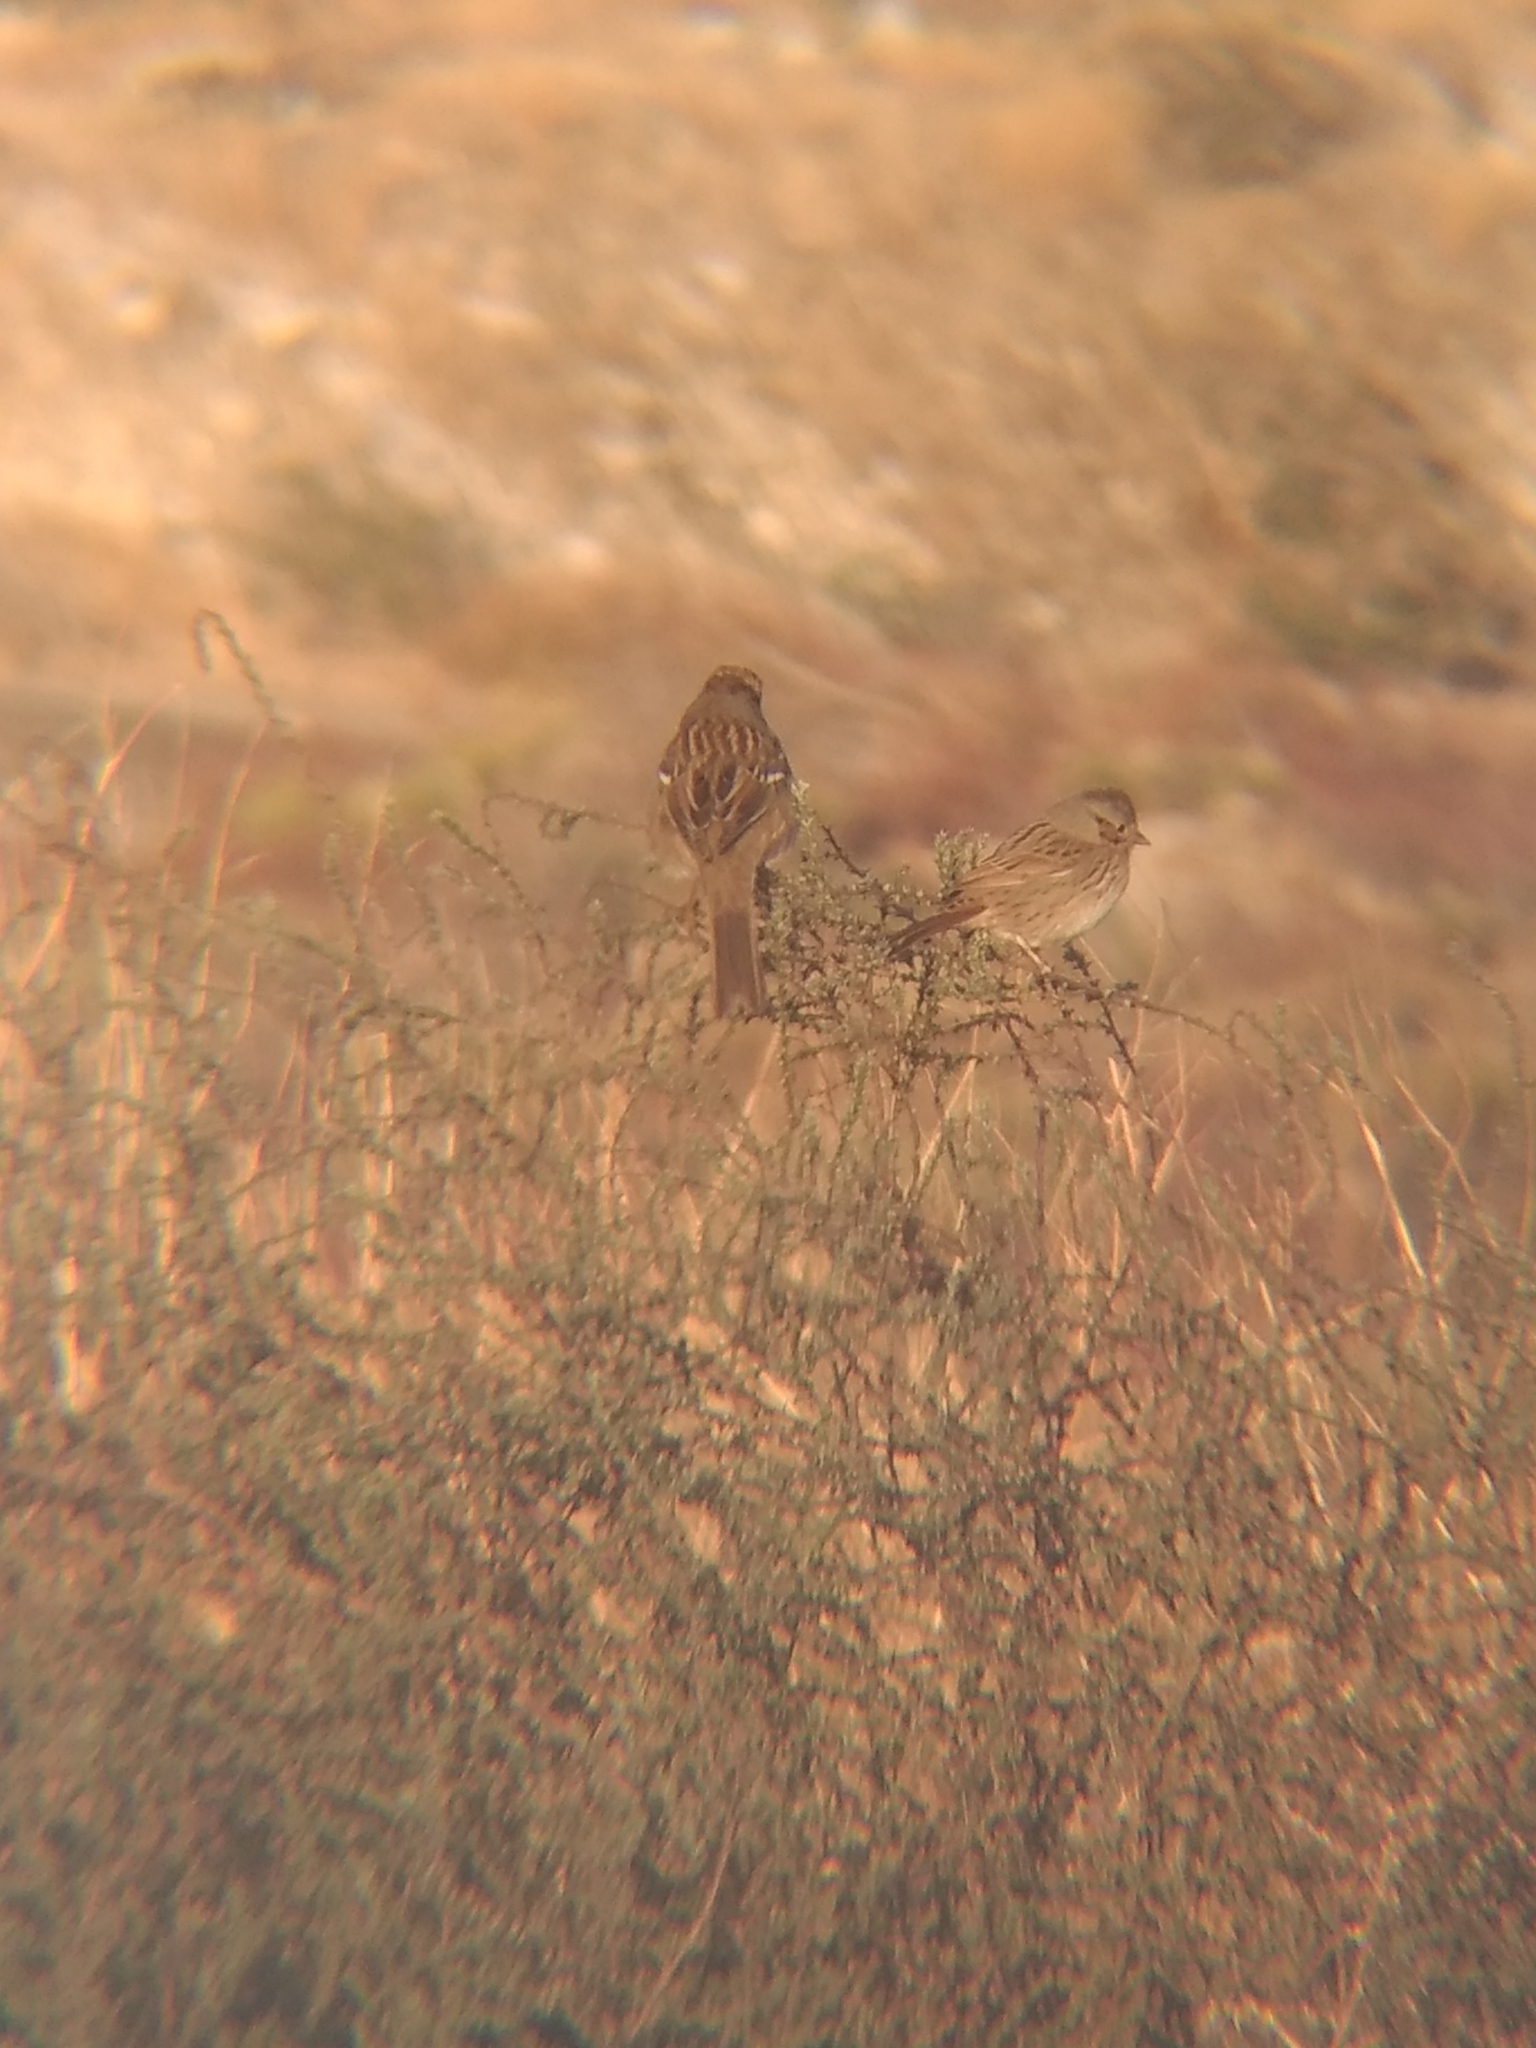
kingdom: Animalia
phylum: Chordata
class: Aves
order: Passeriformes
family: Passerellidae
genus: Zonotrichia
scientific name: Zonotrichia leucophrys
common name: White-crowned sparrow
